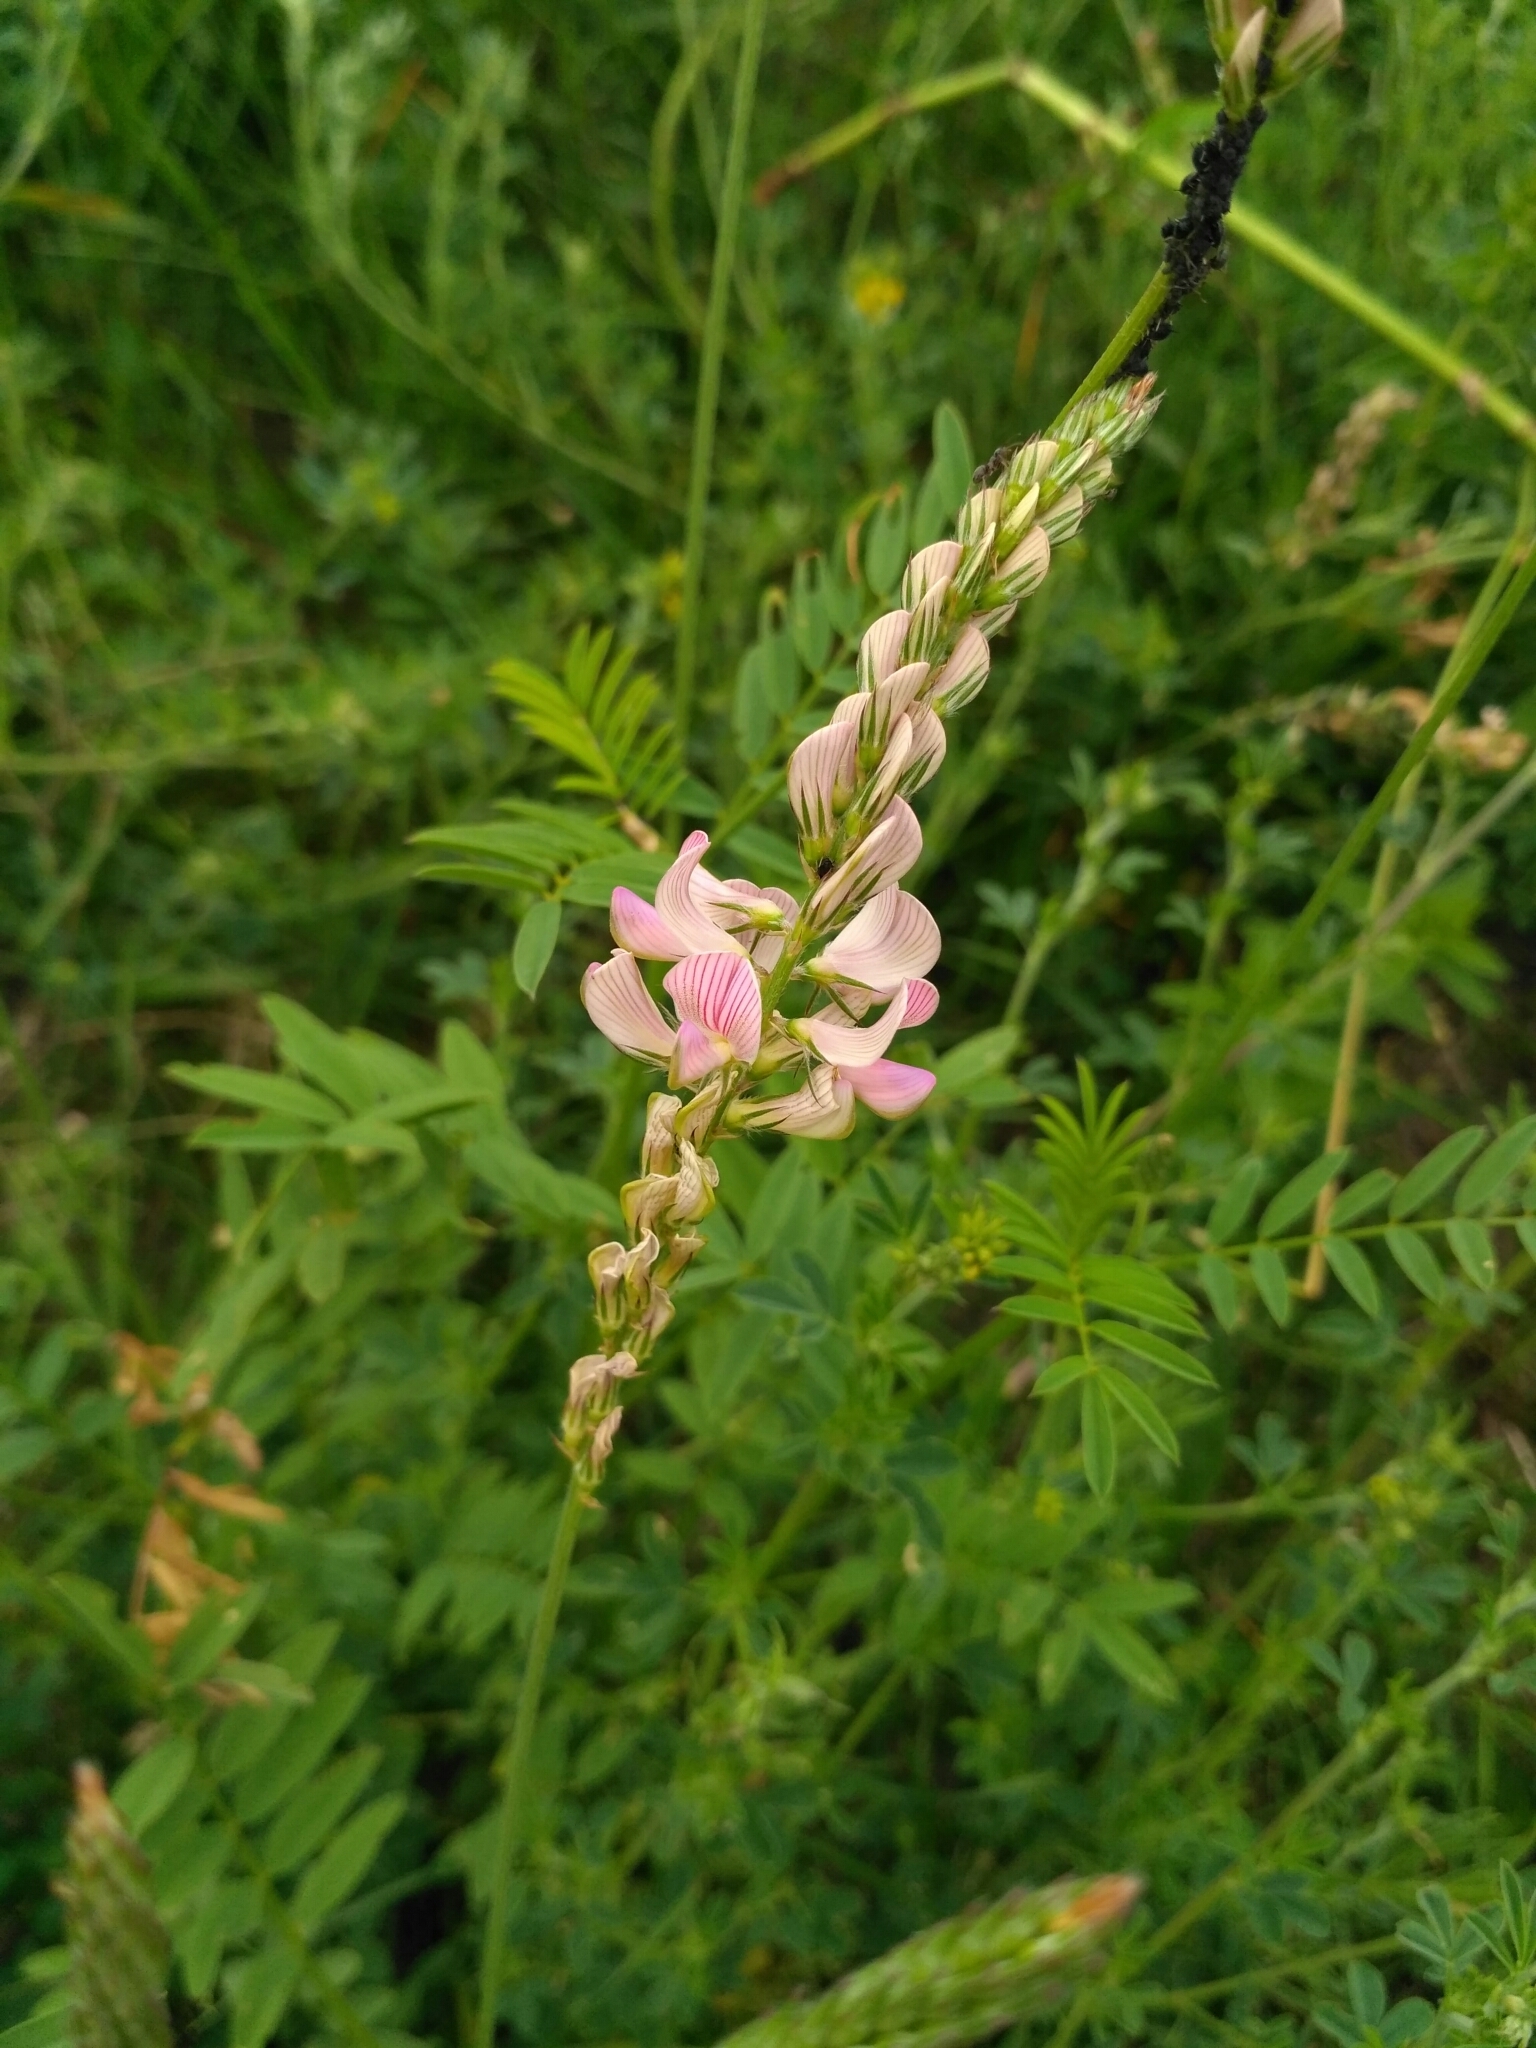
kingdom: Plantae
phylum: Tracheophyta
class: Magnoliopsida
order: Fabales
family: Fabaceae
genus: Onobrychis
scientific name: Onobrychis arenaria
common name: Sand esparcet
